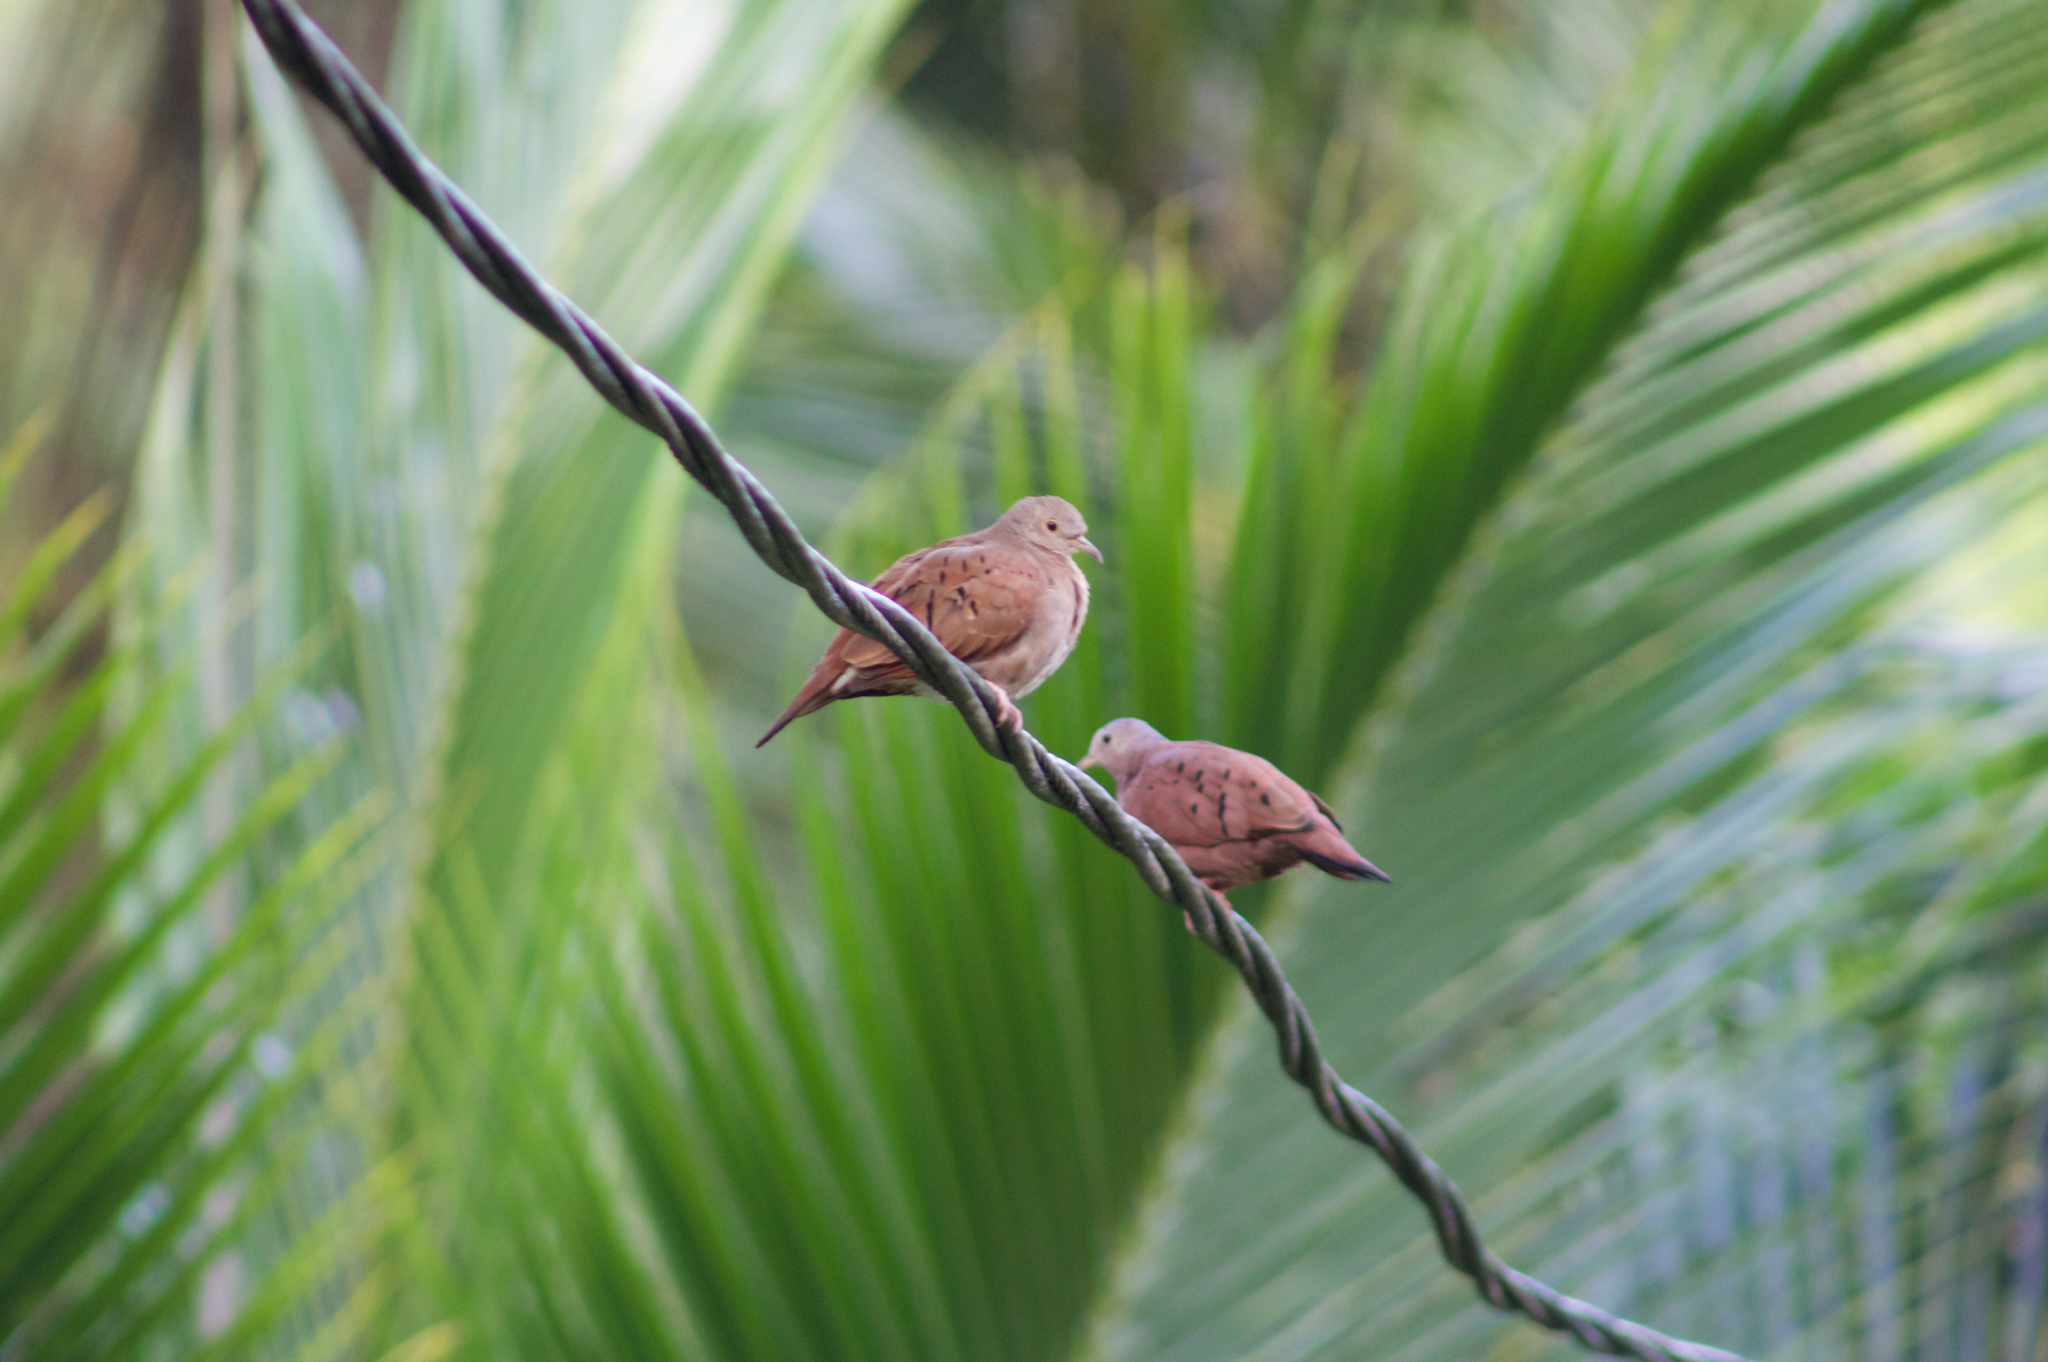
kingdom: Animalia
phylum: Chordata
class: Aves
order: Columbiformes
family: Columbidae
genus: Columbina
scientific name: Columbina talpacoti
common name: Ruddy ground dove
